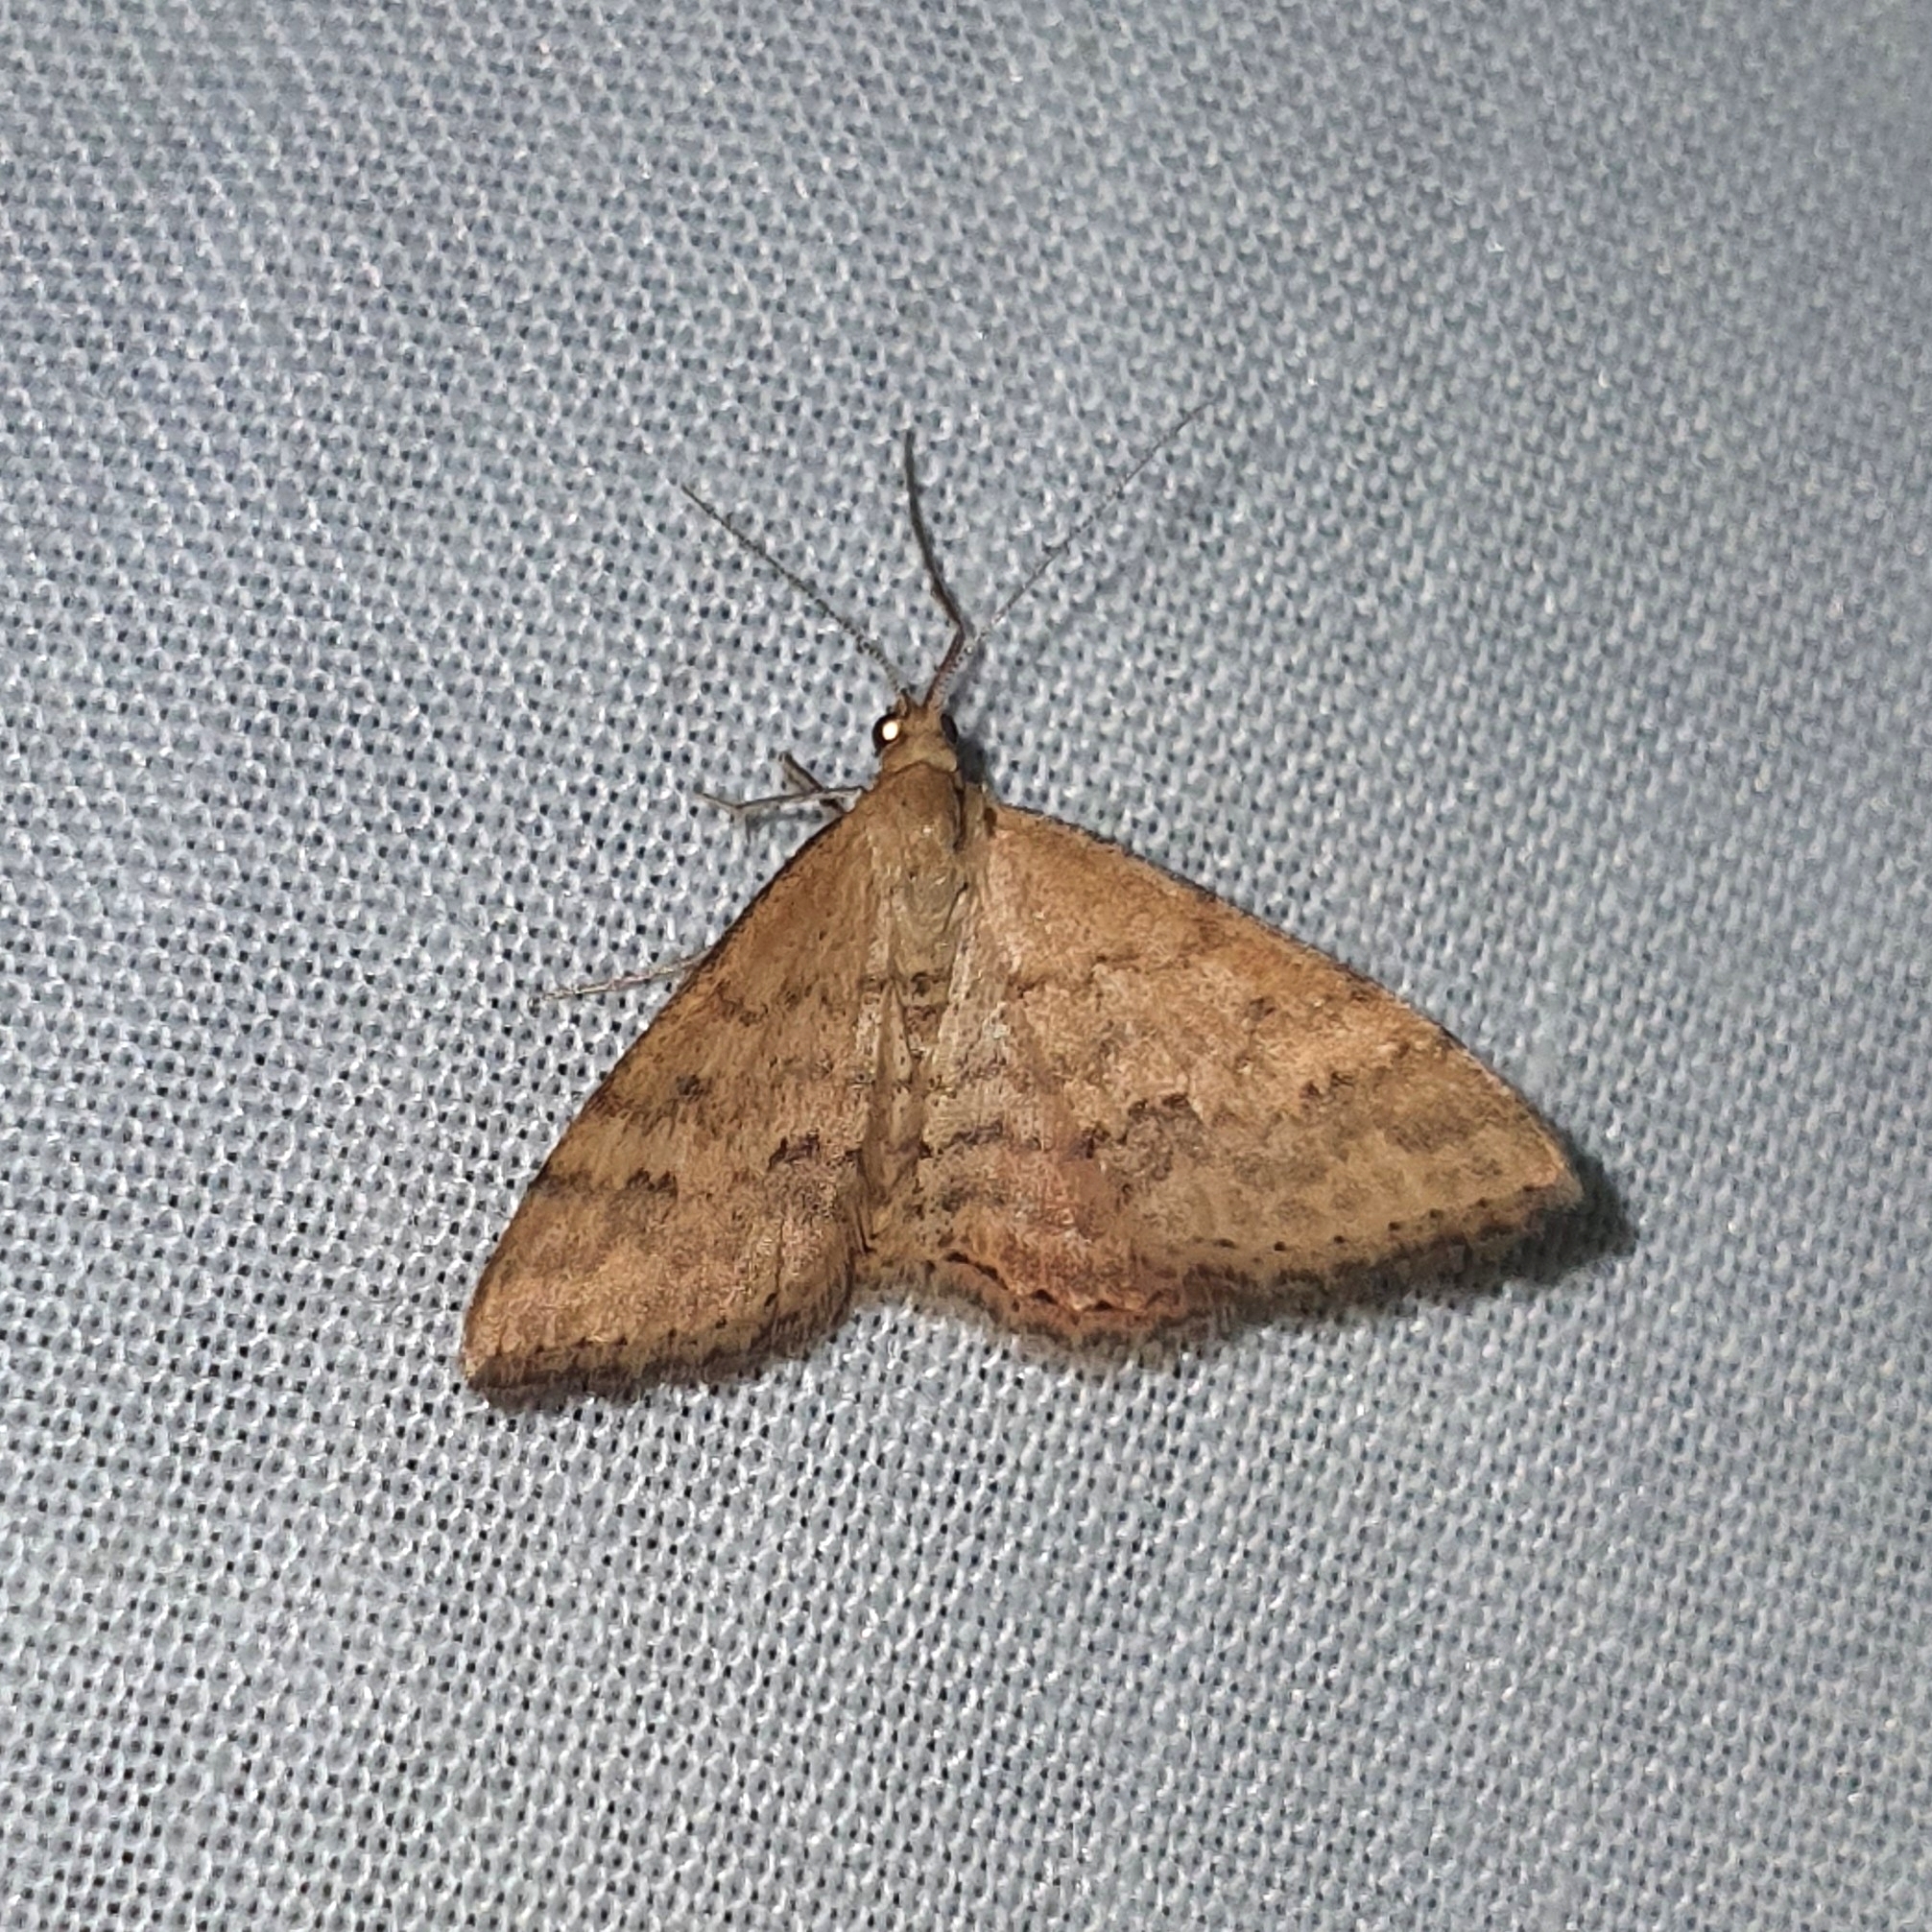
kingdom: Animalia
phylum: Arthropoda
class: Insecta
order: Lepidoptera
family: Geometridae
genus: Scopula
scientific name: Scopula rubraria
